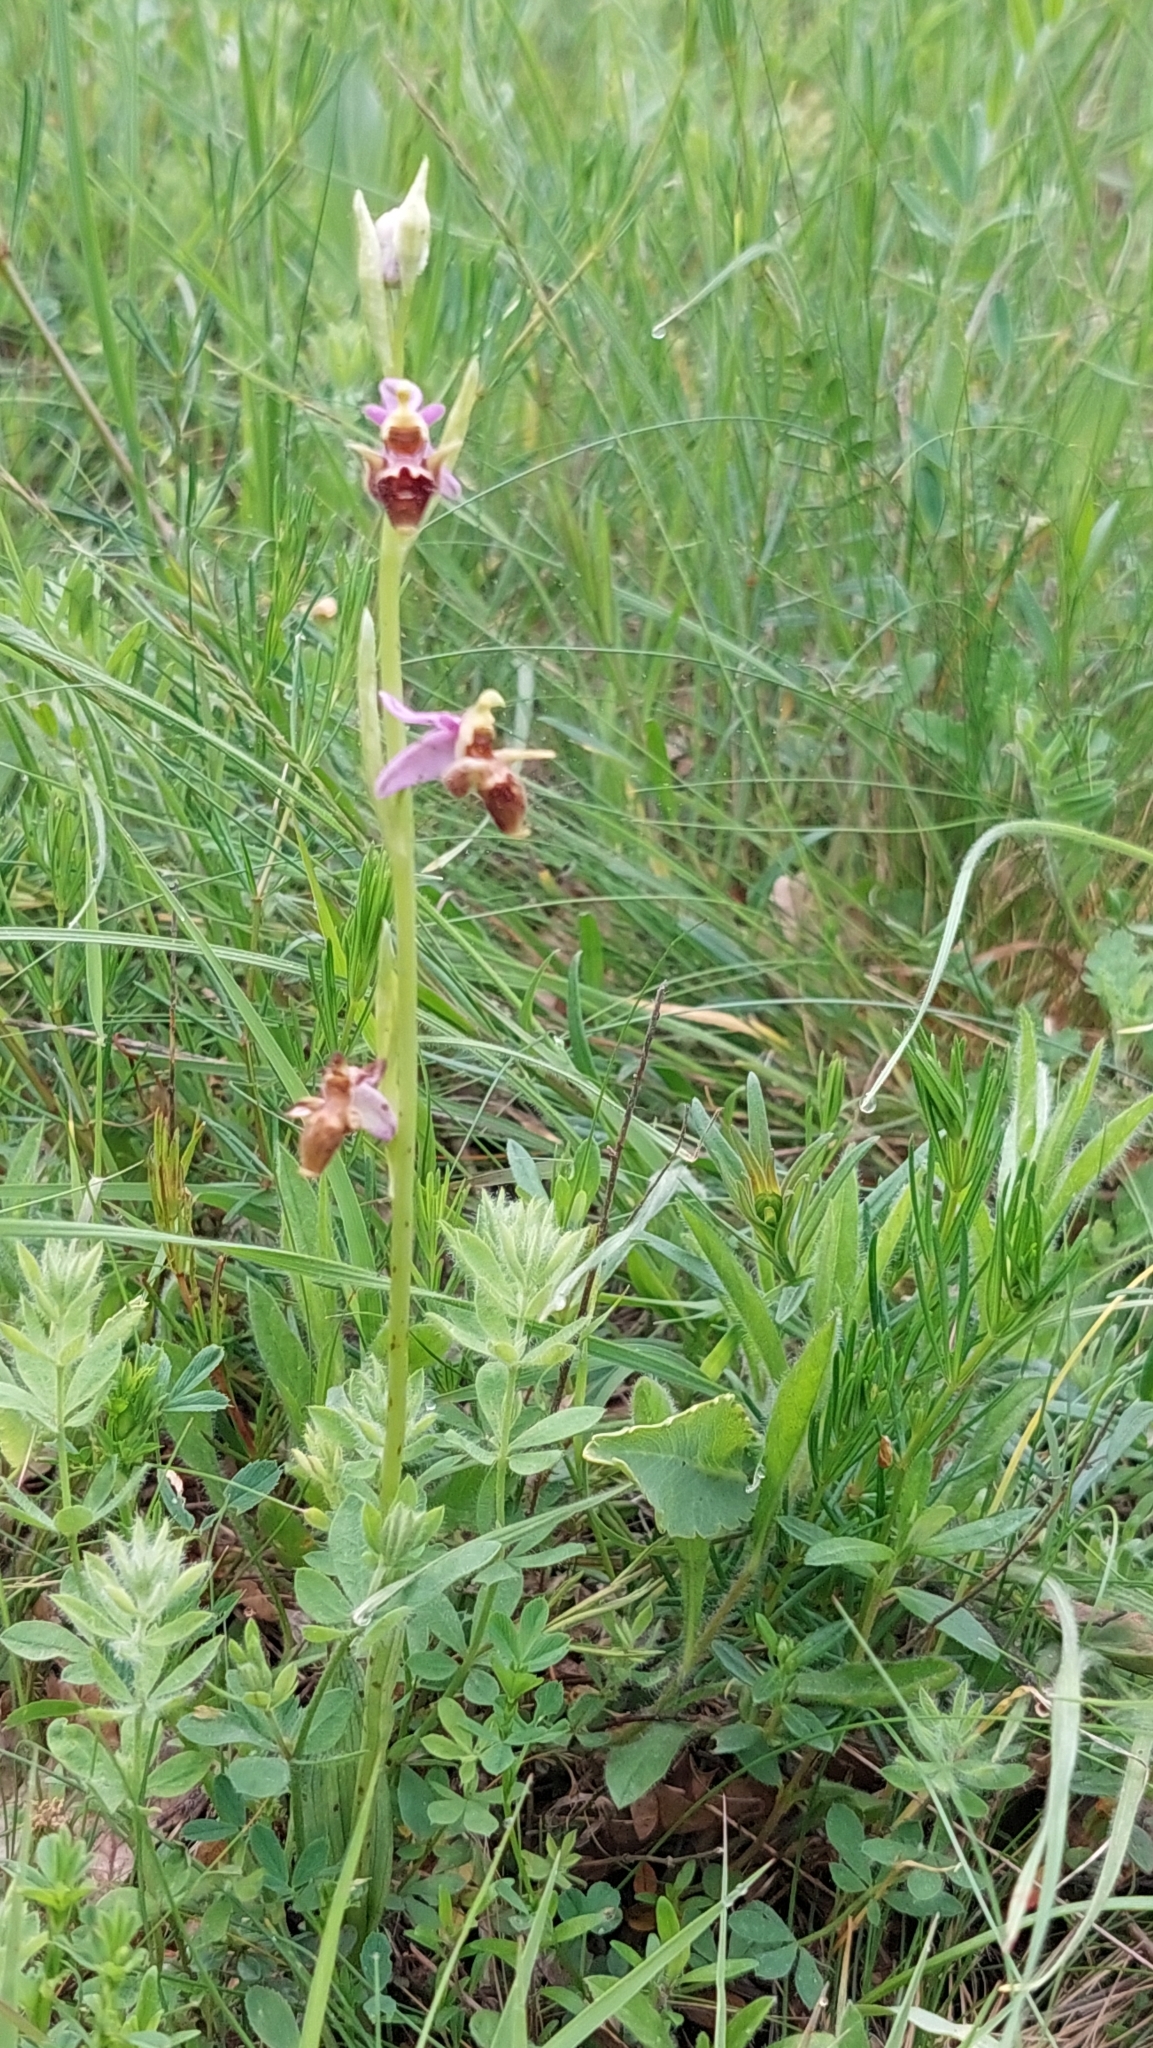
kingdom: Plantae
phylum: Tracheophyta
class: Liliopsida
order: Asparagales
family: Orchidaceae
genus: Ophrys
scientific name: Ophrys
